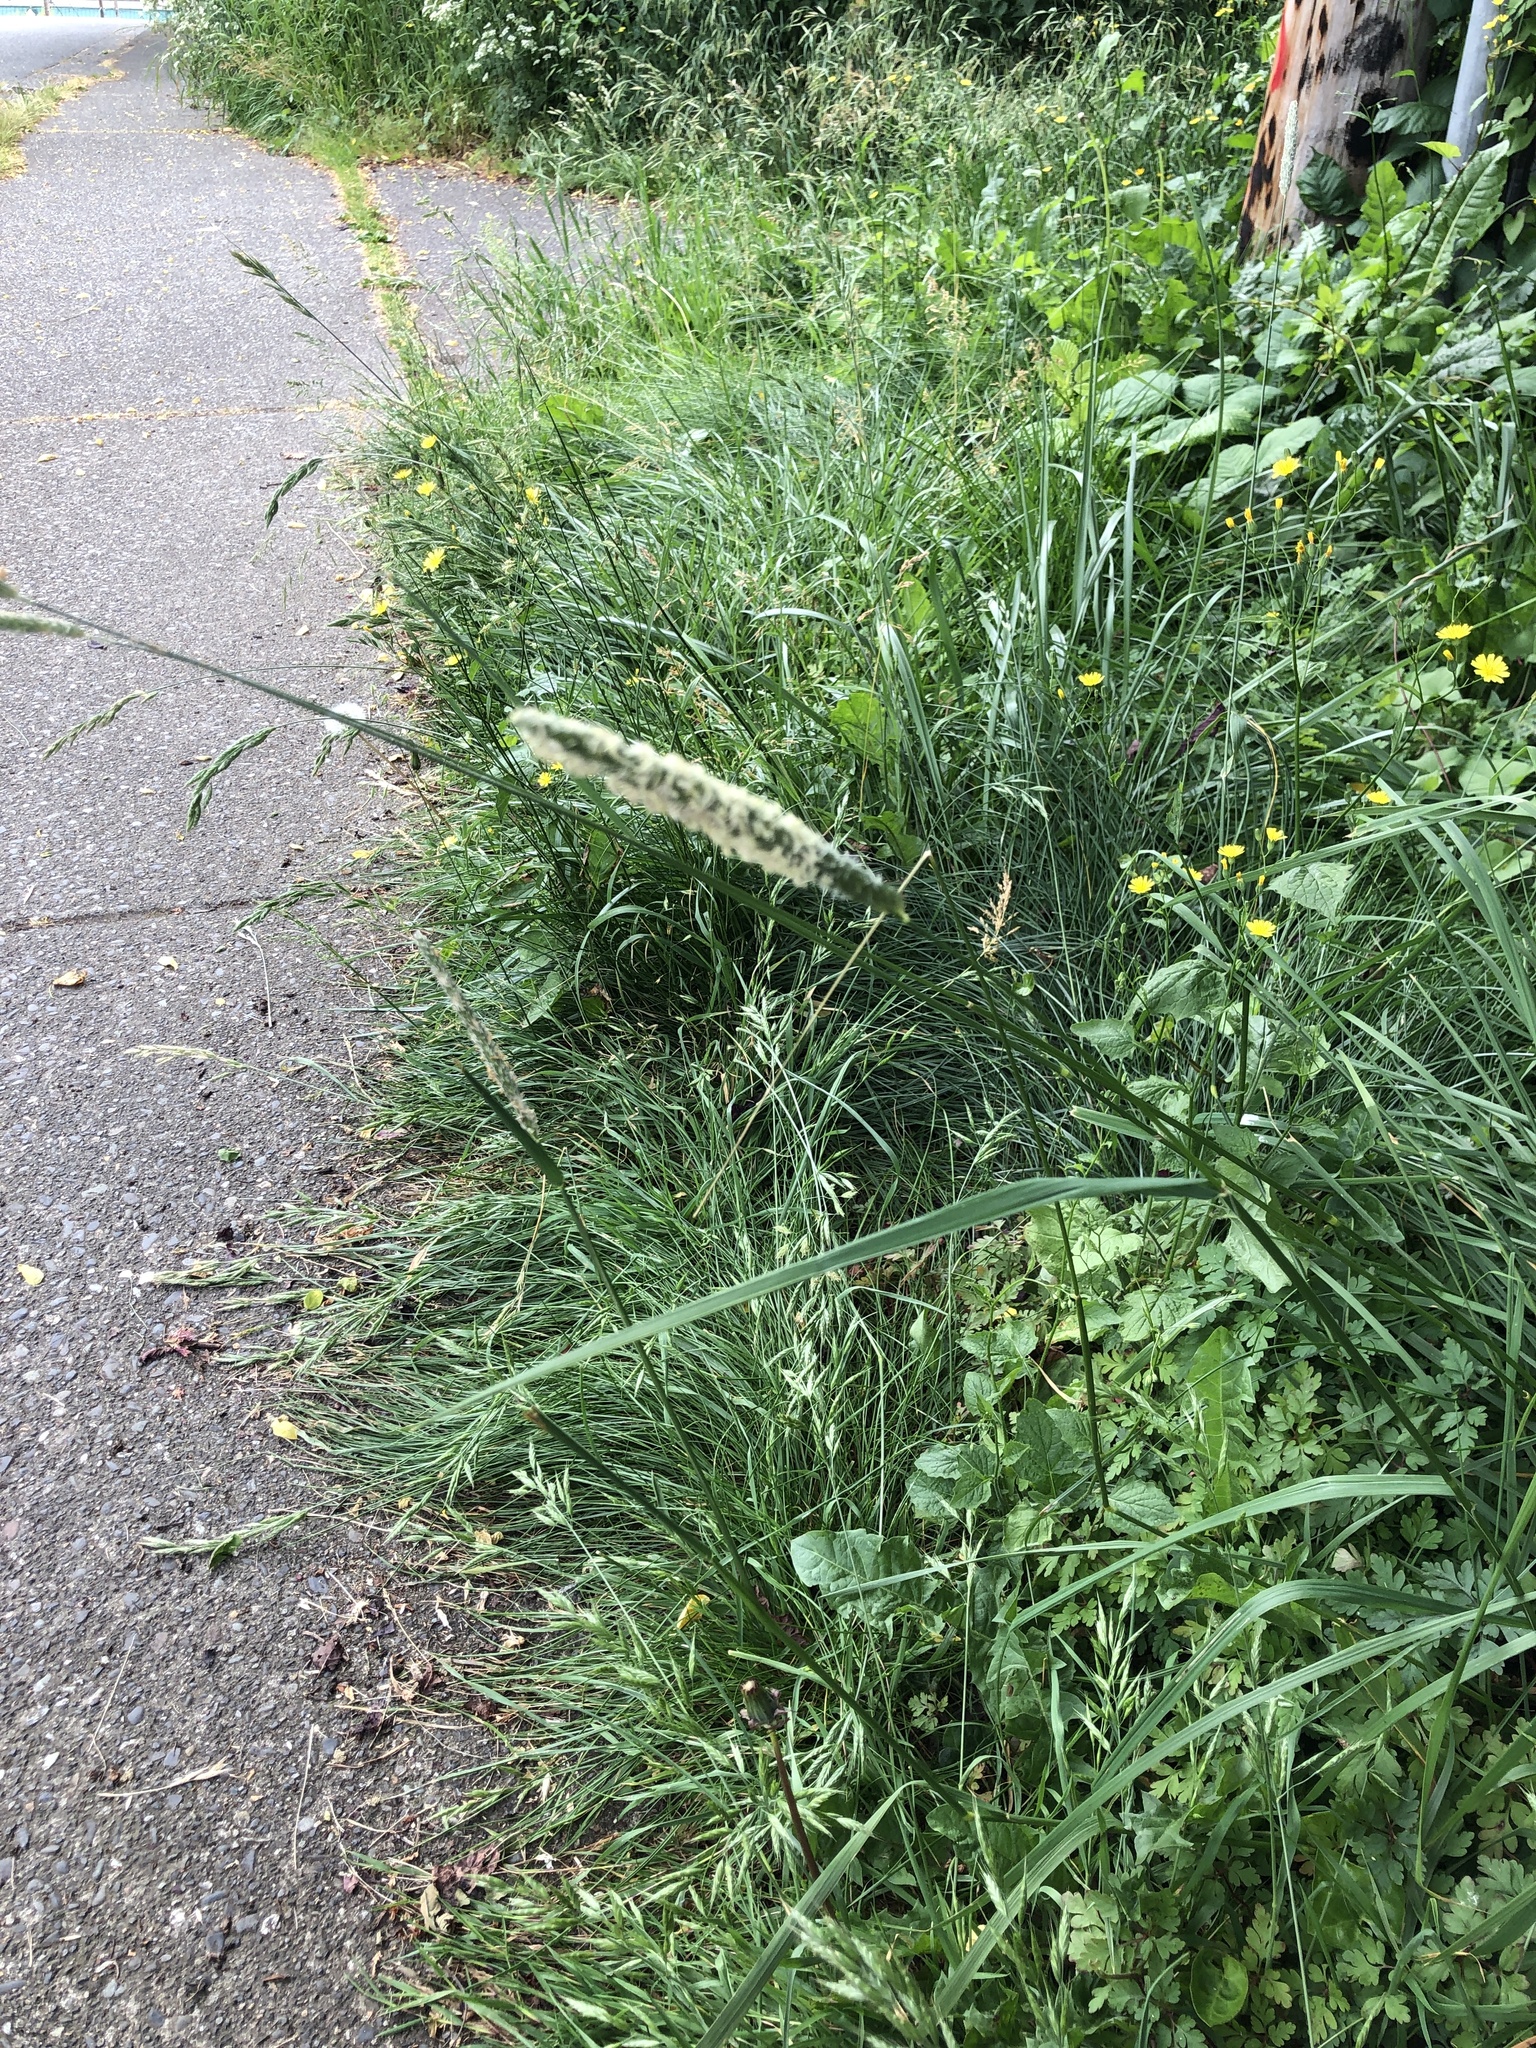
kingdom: Plantae
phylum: Tracheophyta
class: Liliopsida
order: Poales
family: Poaceae
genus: Phleum
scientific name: Phleum pratense
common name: Timothy grass
